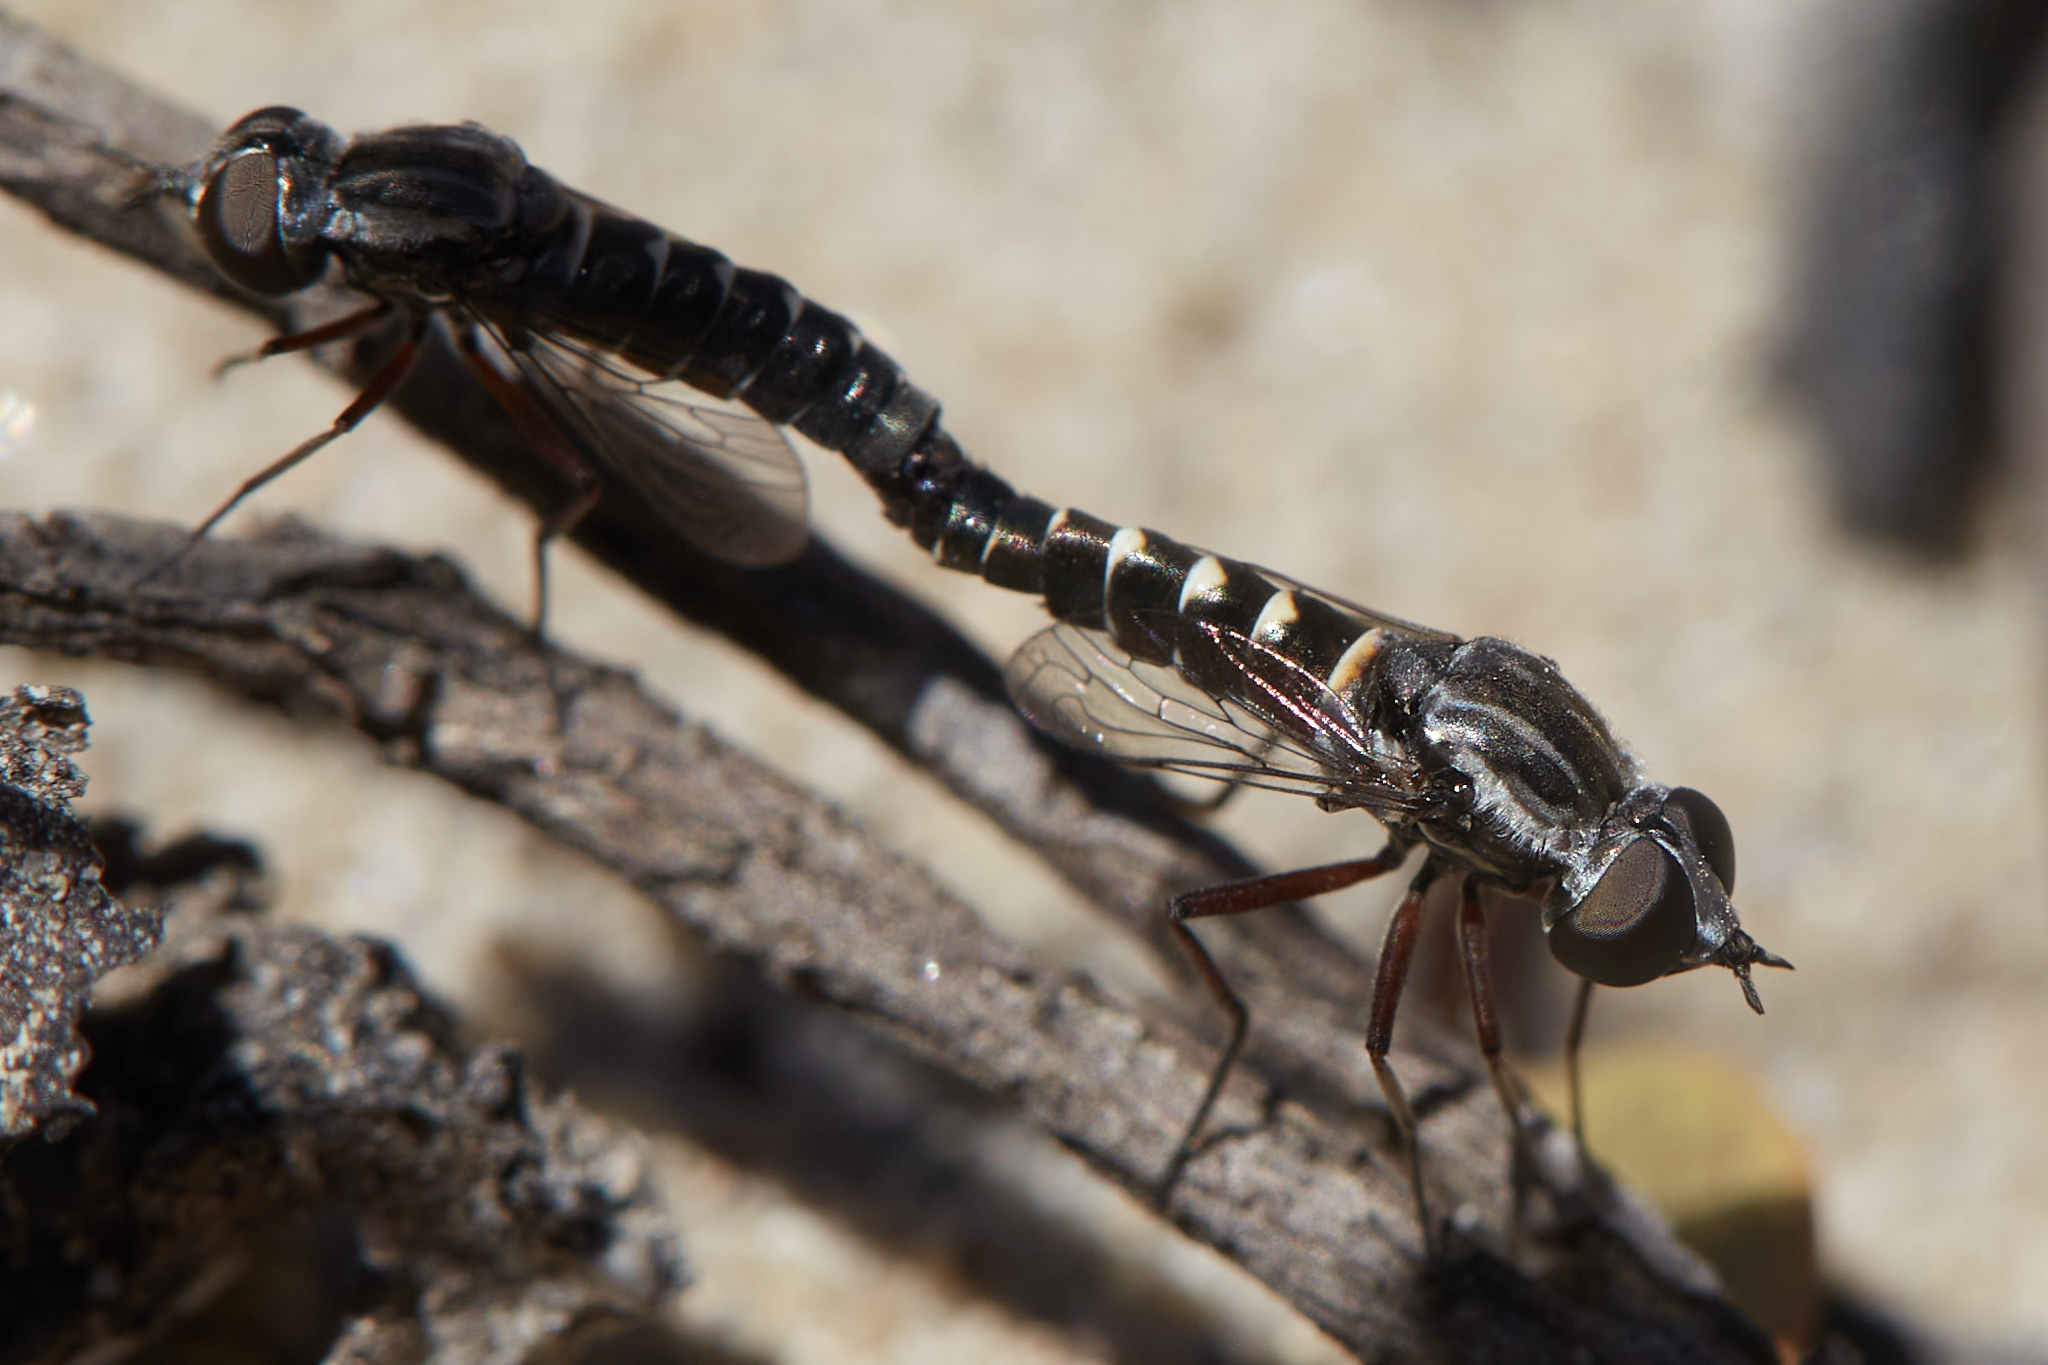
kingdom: Animalia
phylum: Arthropoda
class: Insecta
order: Diptera
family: Bombyliidae
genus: Paracosmus
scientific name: Paracosmus edwardsii
